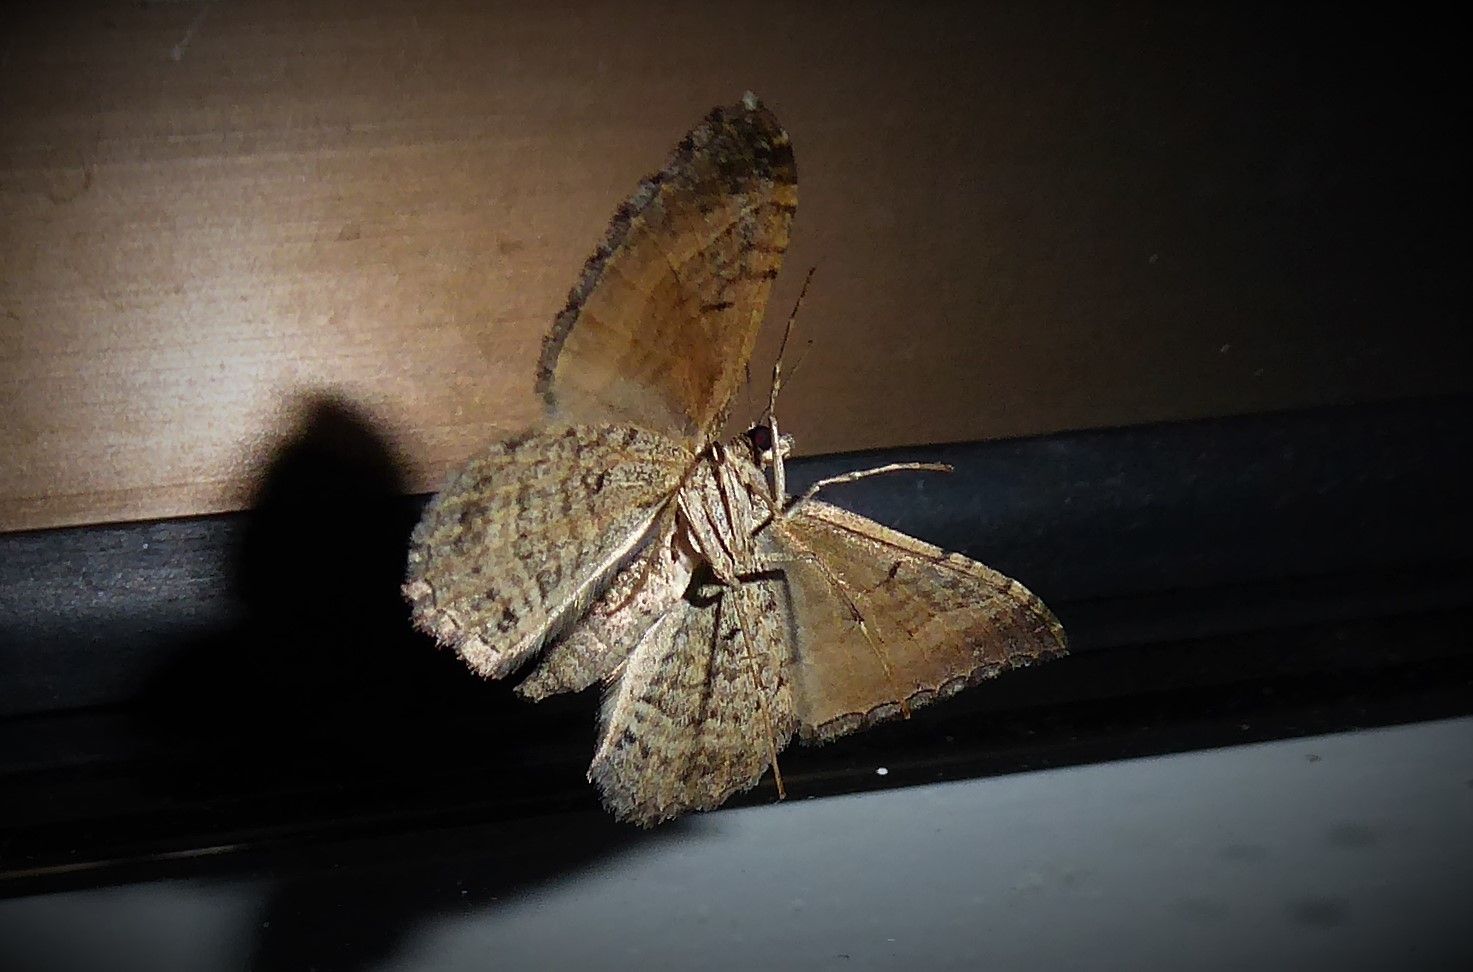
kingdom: Animalia
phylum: Arthropoda
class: Insecta
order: Lepidoptera
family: Geometridae
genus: Hydriomena
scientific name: Hydriomena deltoidata
